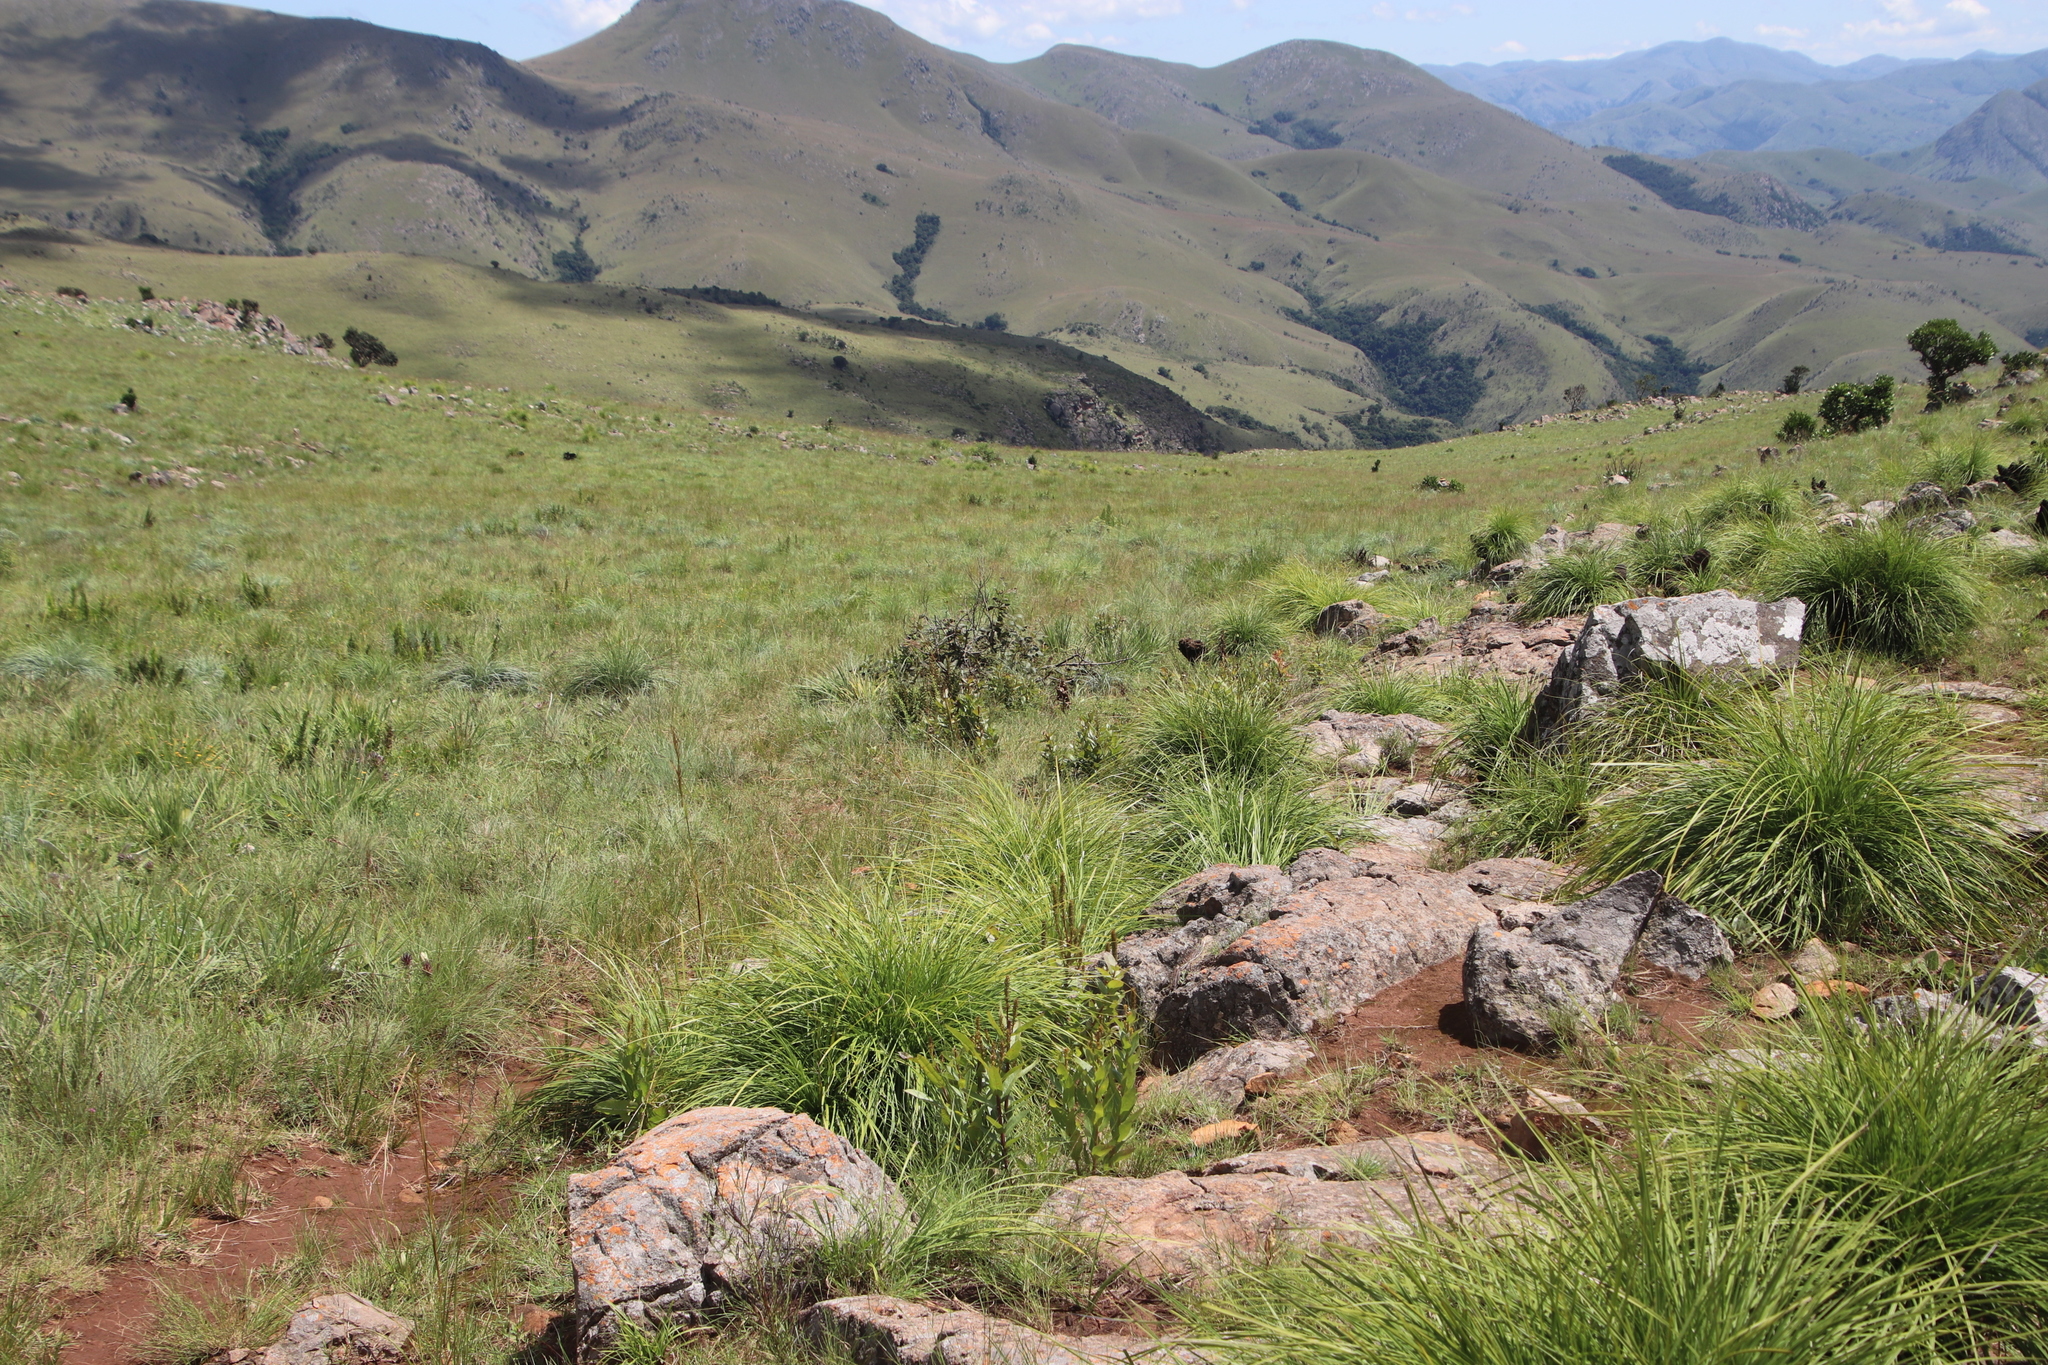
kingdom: Plantae
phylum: Tracheophyta
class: Magnoliopsida
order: Asterales
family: Campanulaceae
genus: Cyphia
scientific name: Cyphia elata
